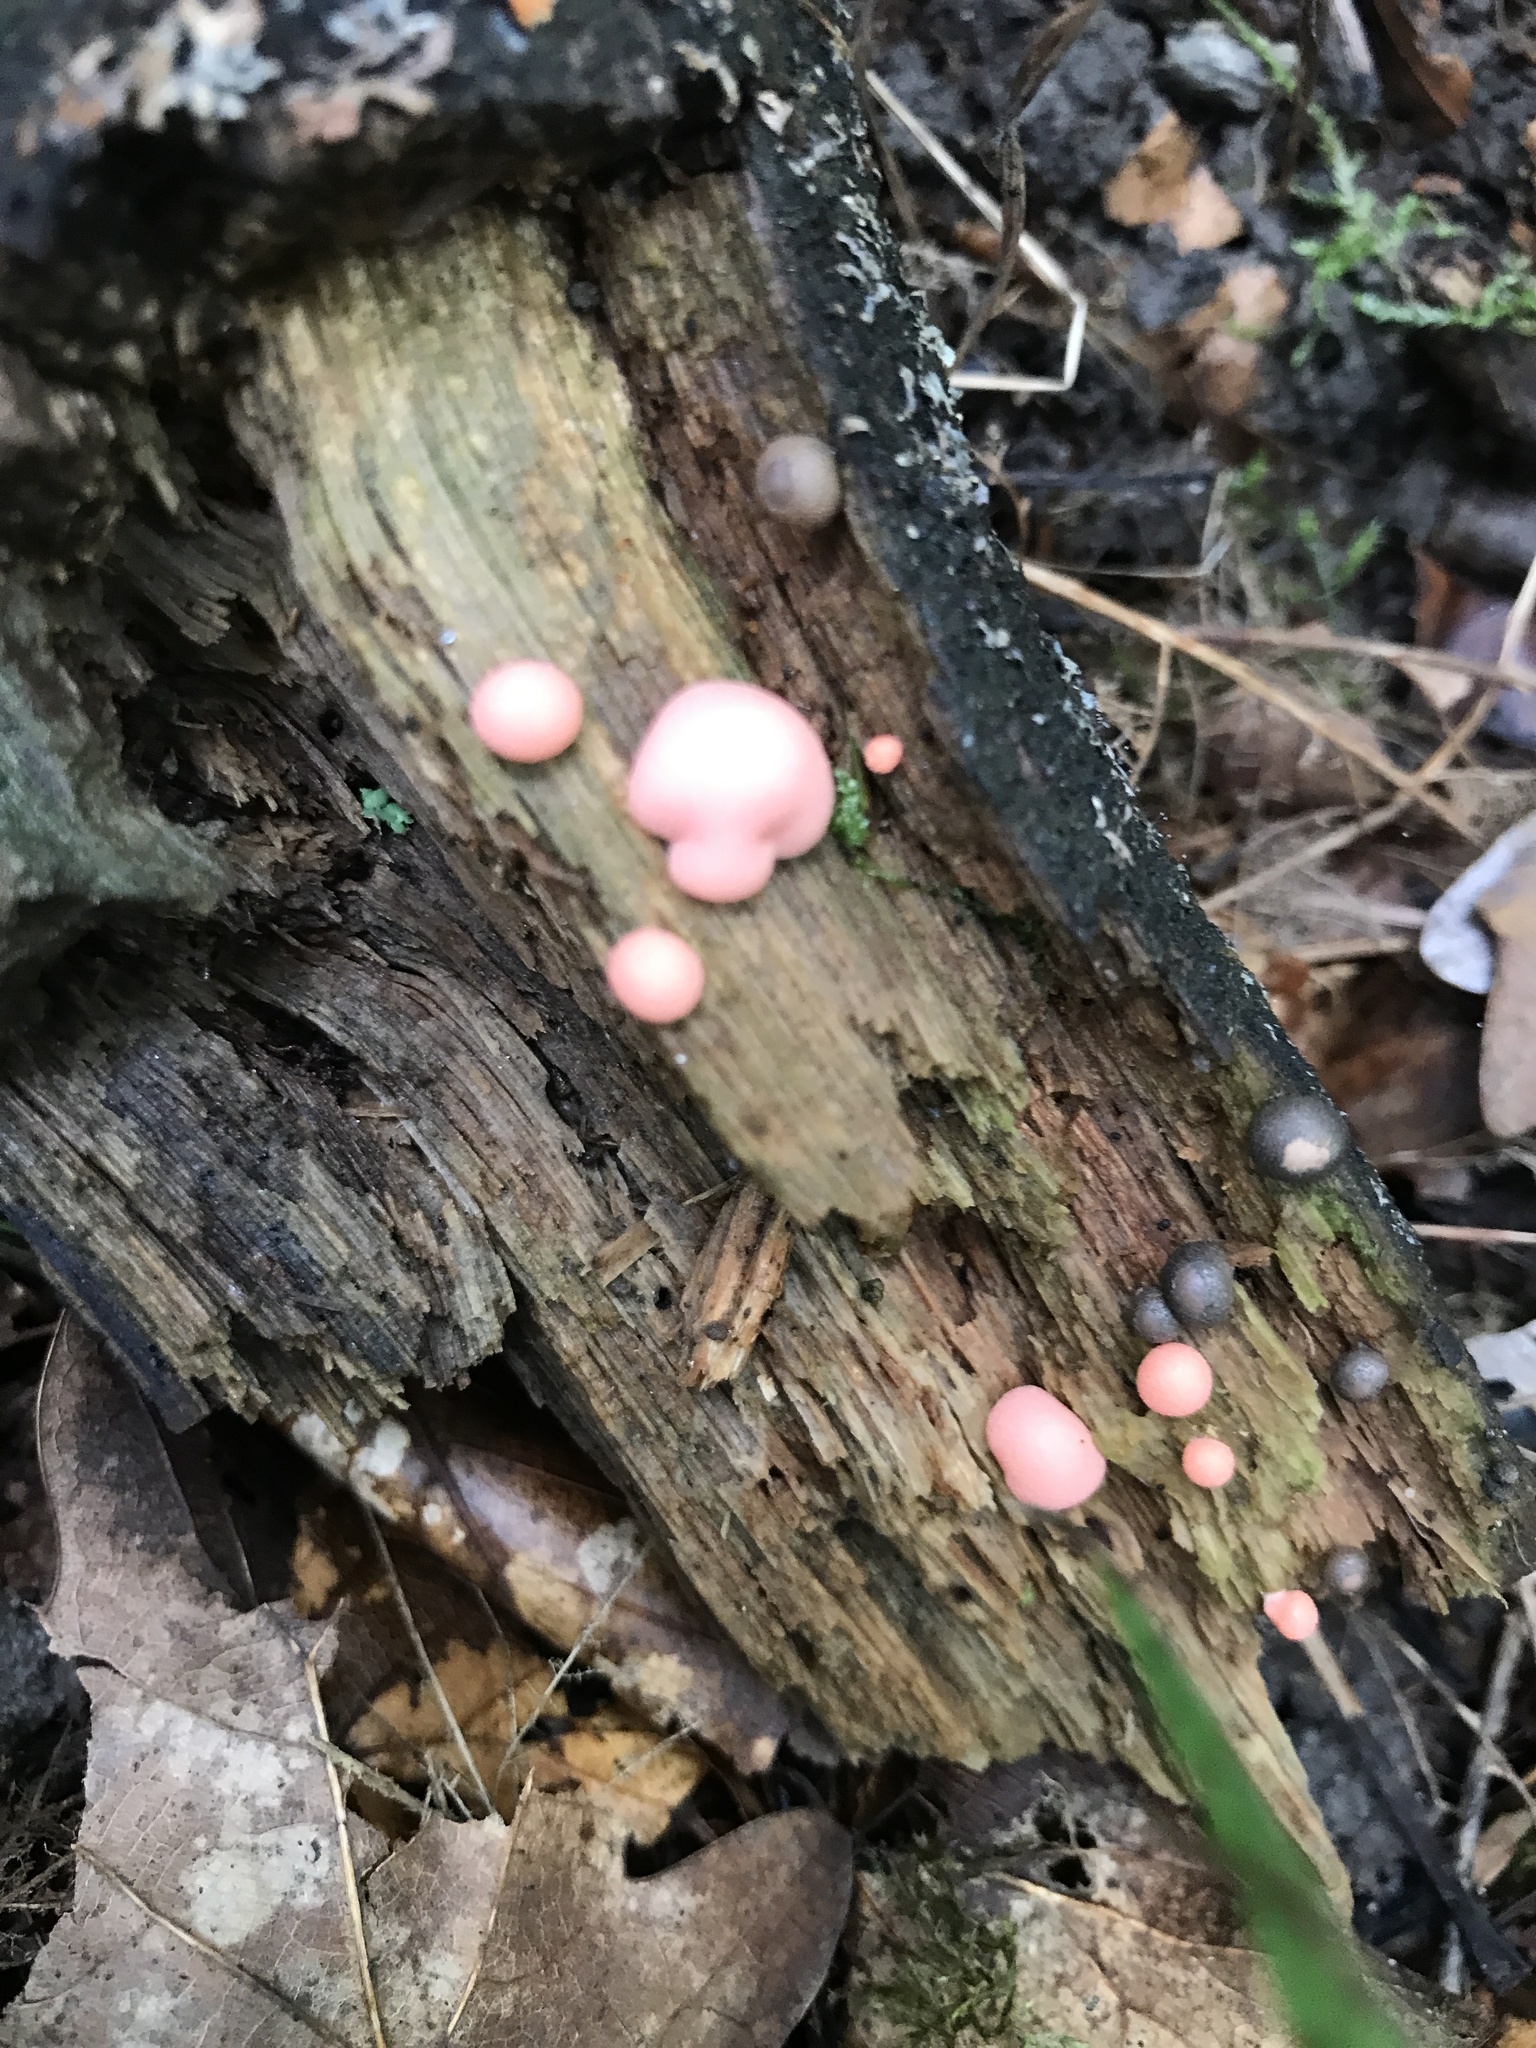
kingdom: Protozoa
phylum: Mycetozoa
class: Myxomycetes
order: Cribrariales
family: Tubiferaceae
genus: Lycogala
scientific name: Lycogala epidendrum
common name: Wolf's milk
